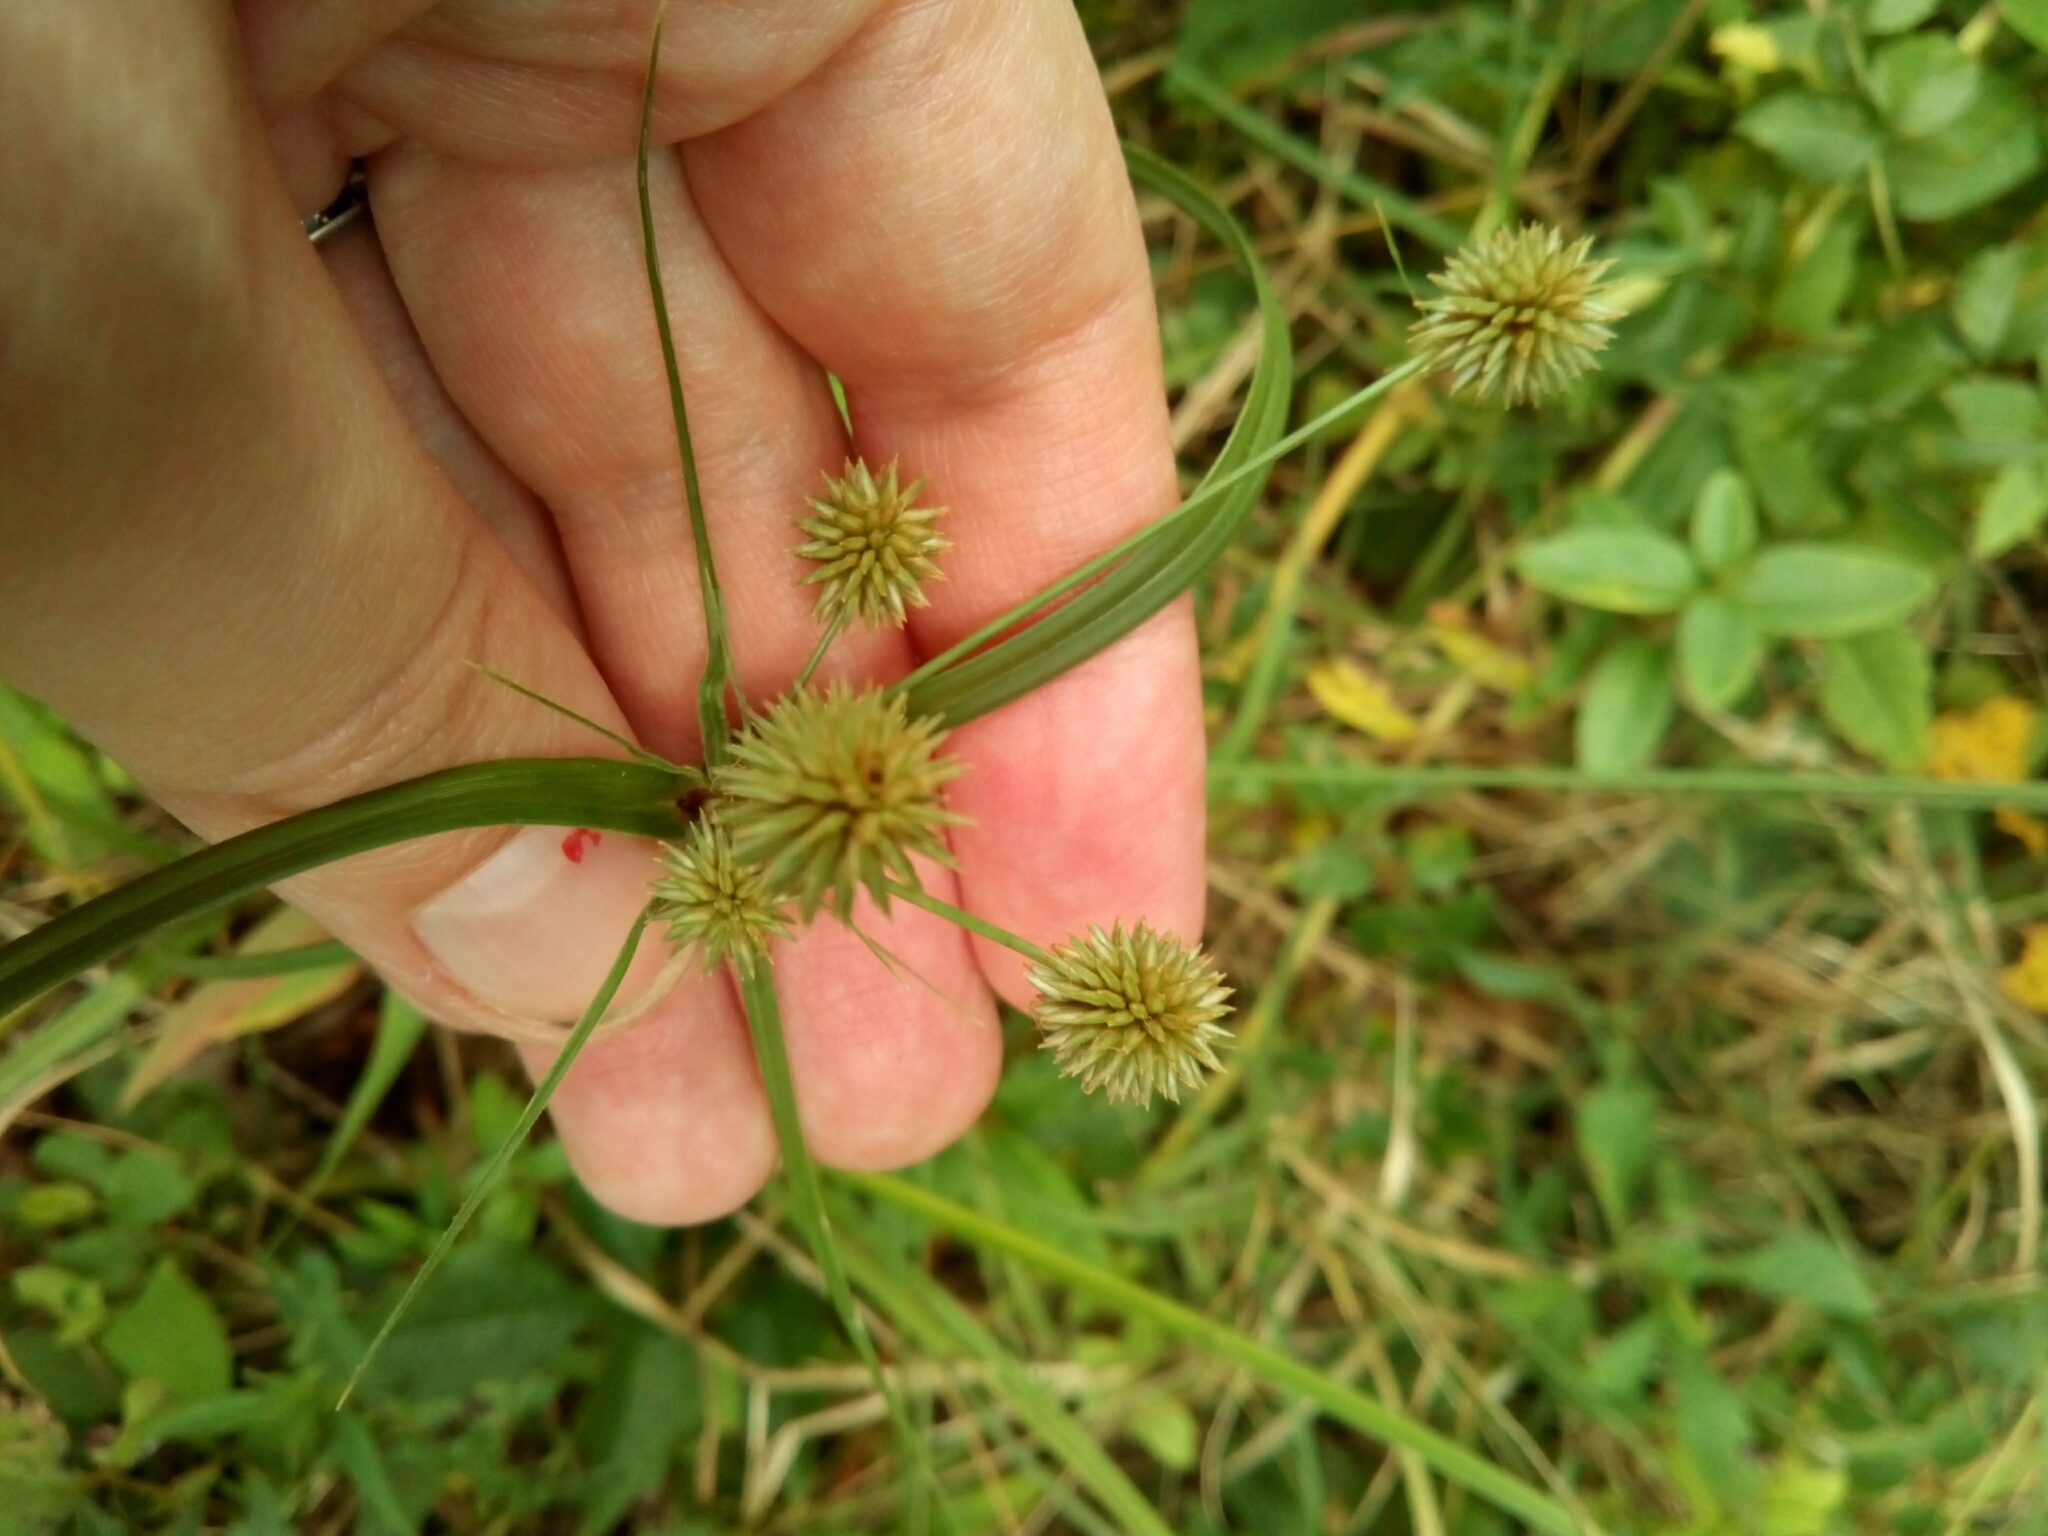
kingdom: Plantae
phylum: Tracheophyta
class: Liliopsida
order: Poales
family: Cyperaceae
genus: Cyperus
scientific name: Cyperus echinatus
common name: Teasel sedge
